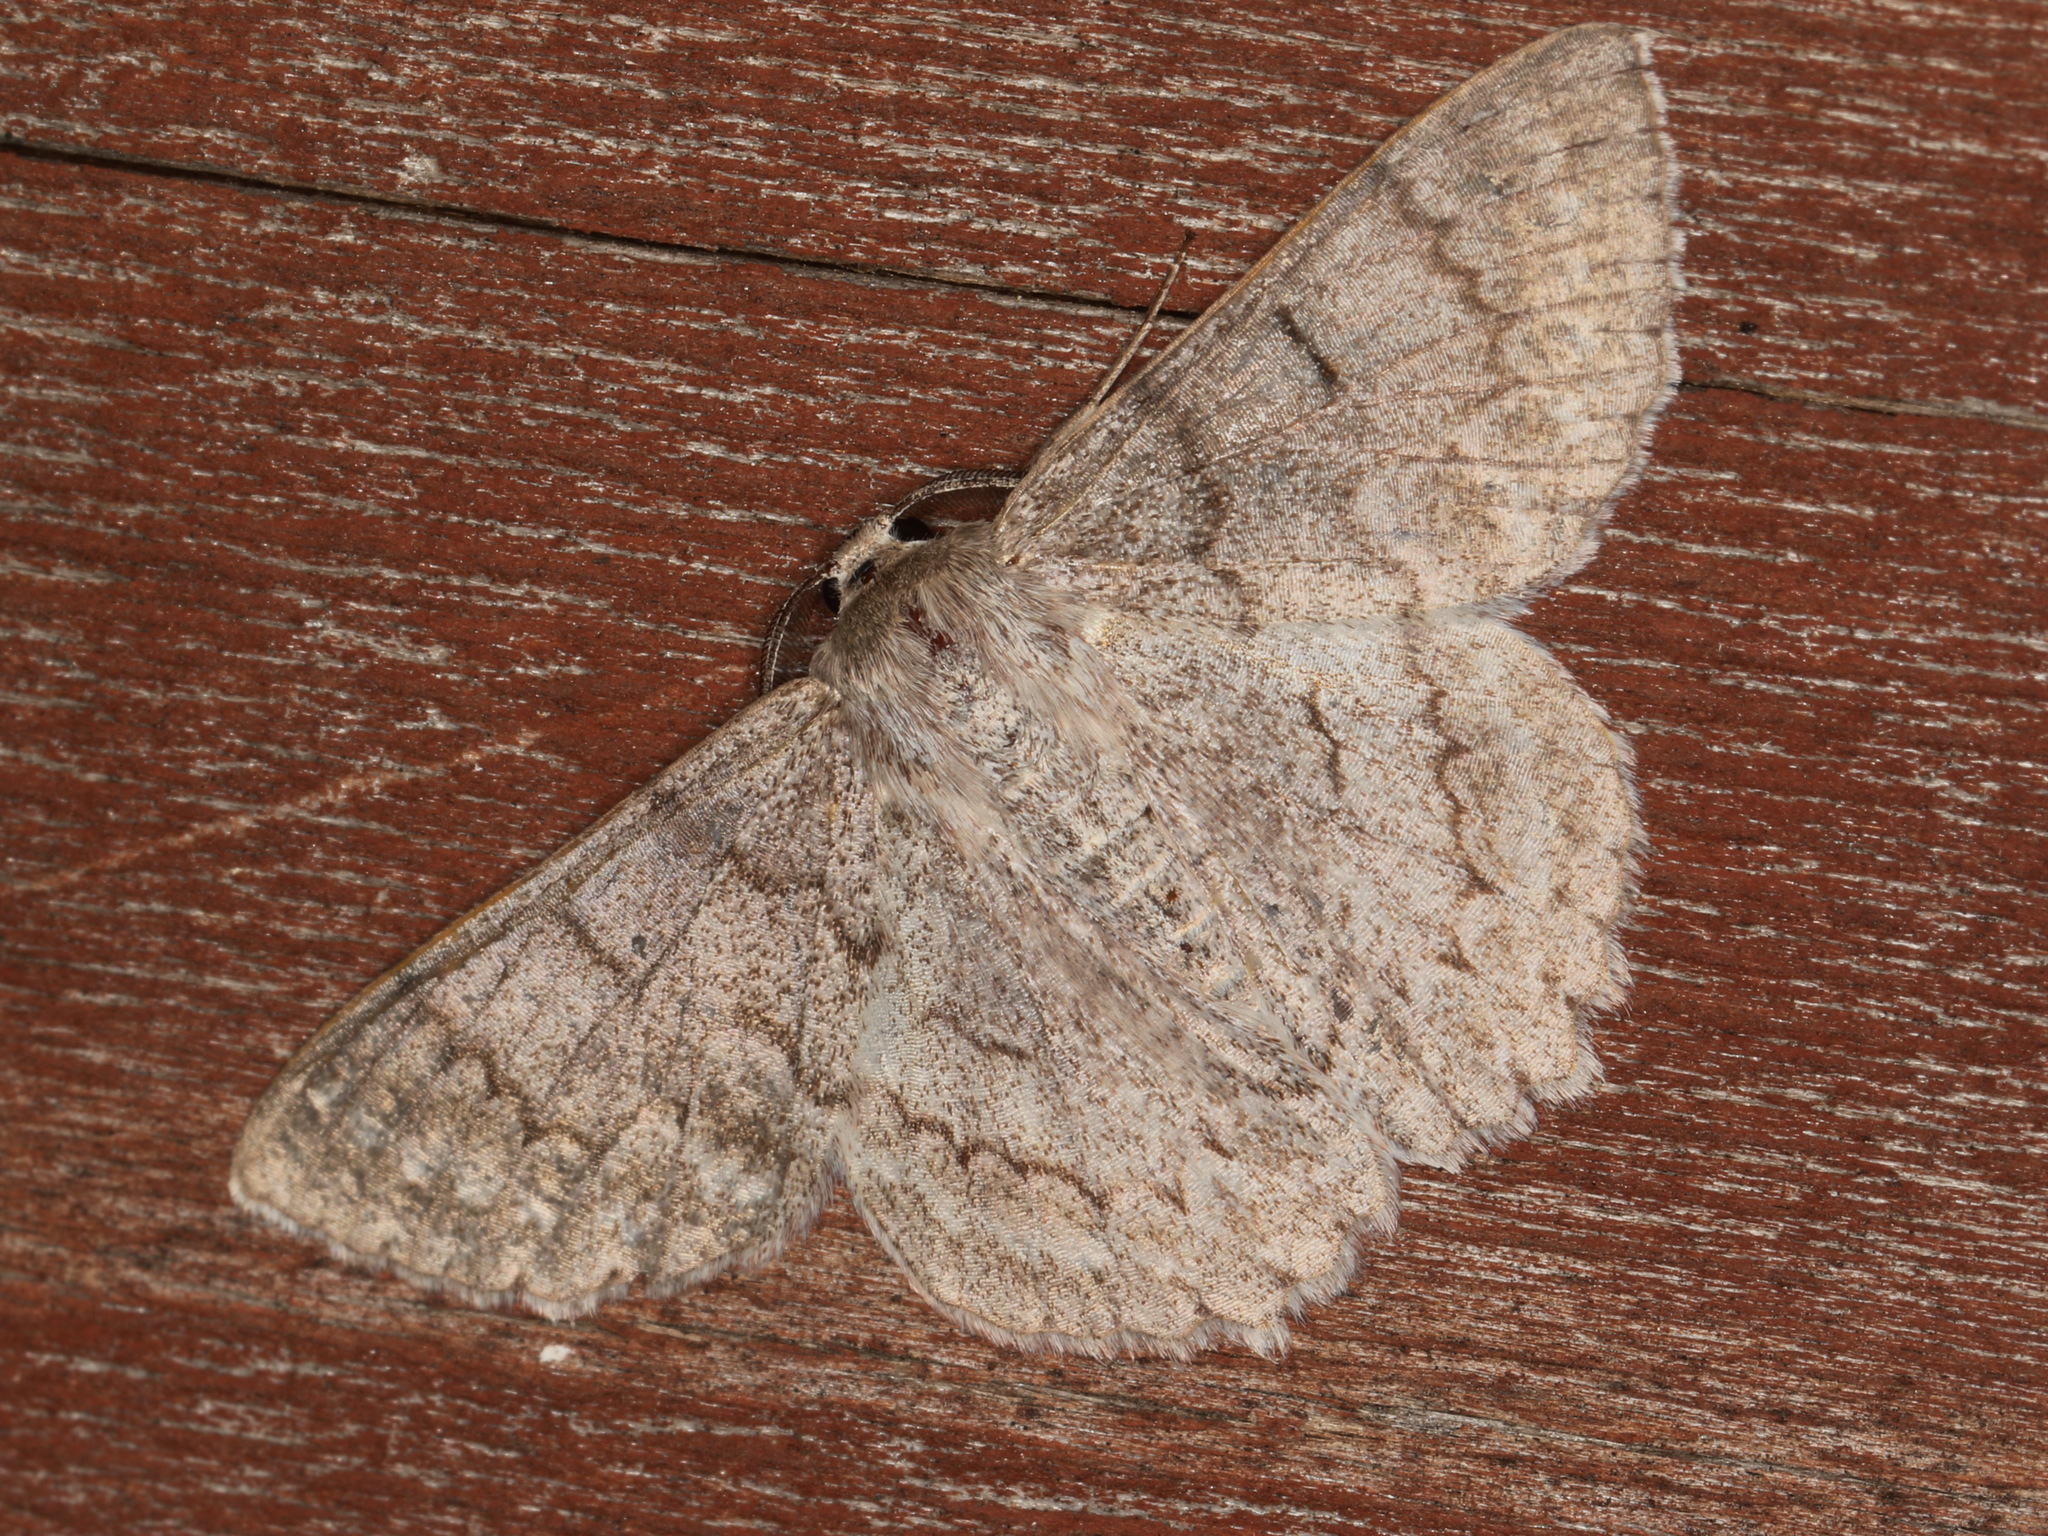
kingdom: Animalia
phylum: Arthropoda
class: Insecta
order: Lepidoptera
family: Geometridae
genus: Crypsiphona
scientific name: Crypsiphona ocultaria
